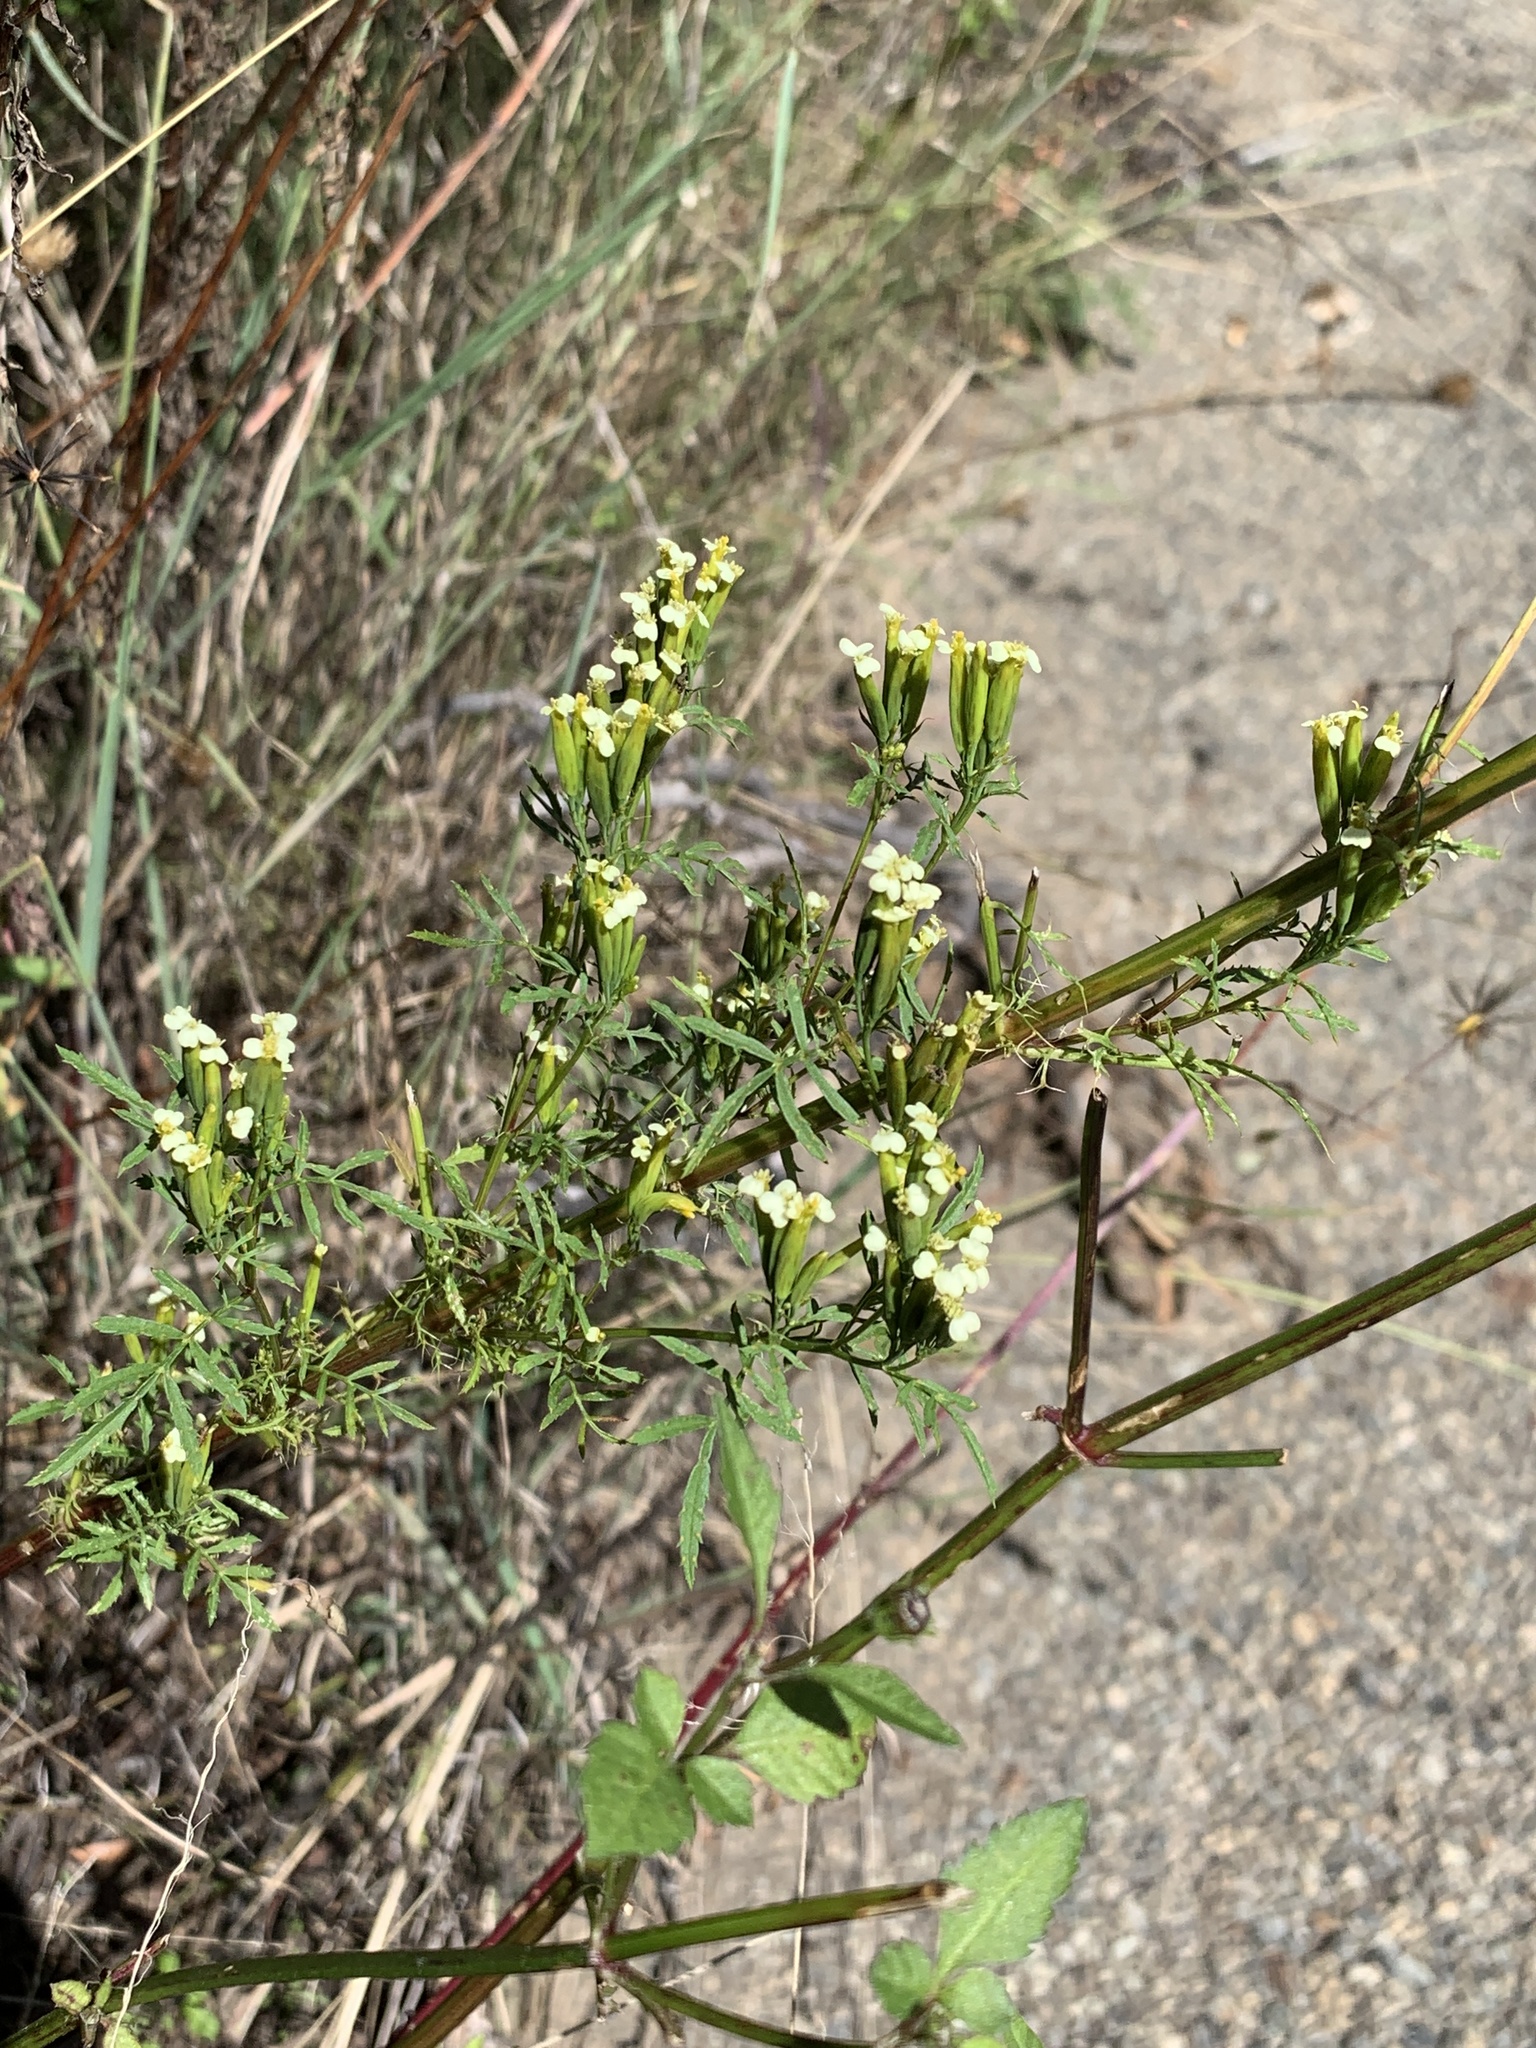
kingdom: Plantae
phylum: Tracheophyta
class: Magnoliopsida
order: Asterales
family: Asteraceae
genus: Tagetes
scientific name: Tagetes minuta
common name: Muster john henry
